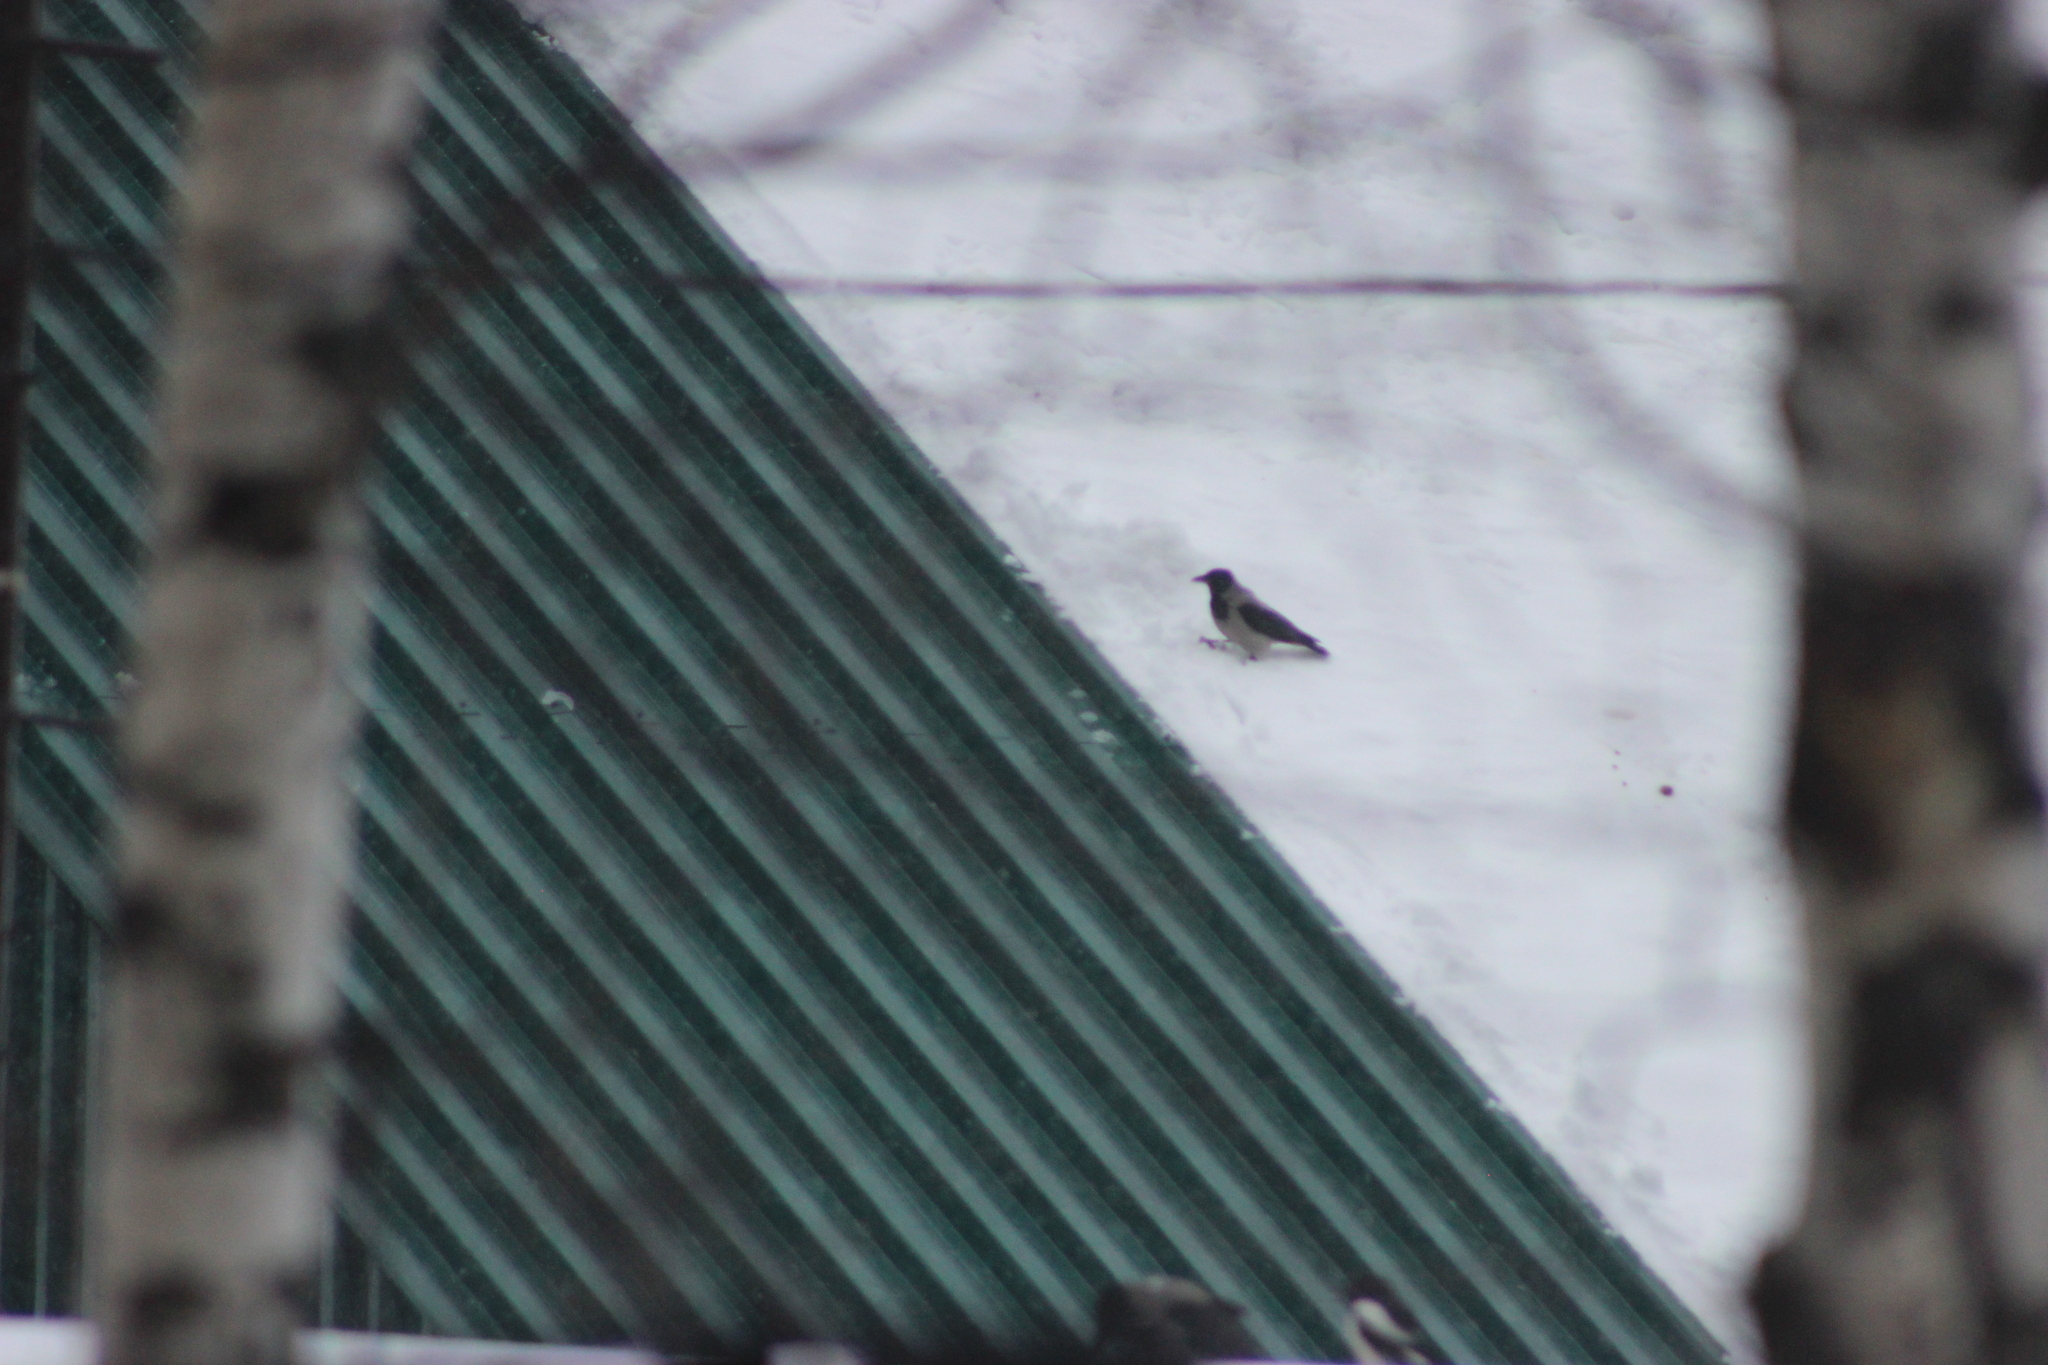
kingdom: Animalia
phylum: Chordata
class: Aves
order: Passeriformes
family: Corvidae
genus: Corvus
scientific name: Corvus cornix
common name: Hooded crow
